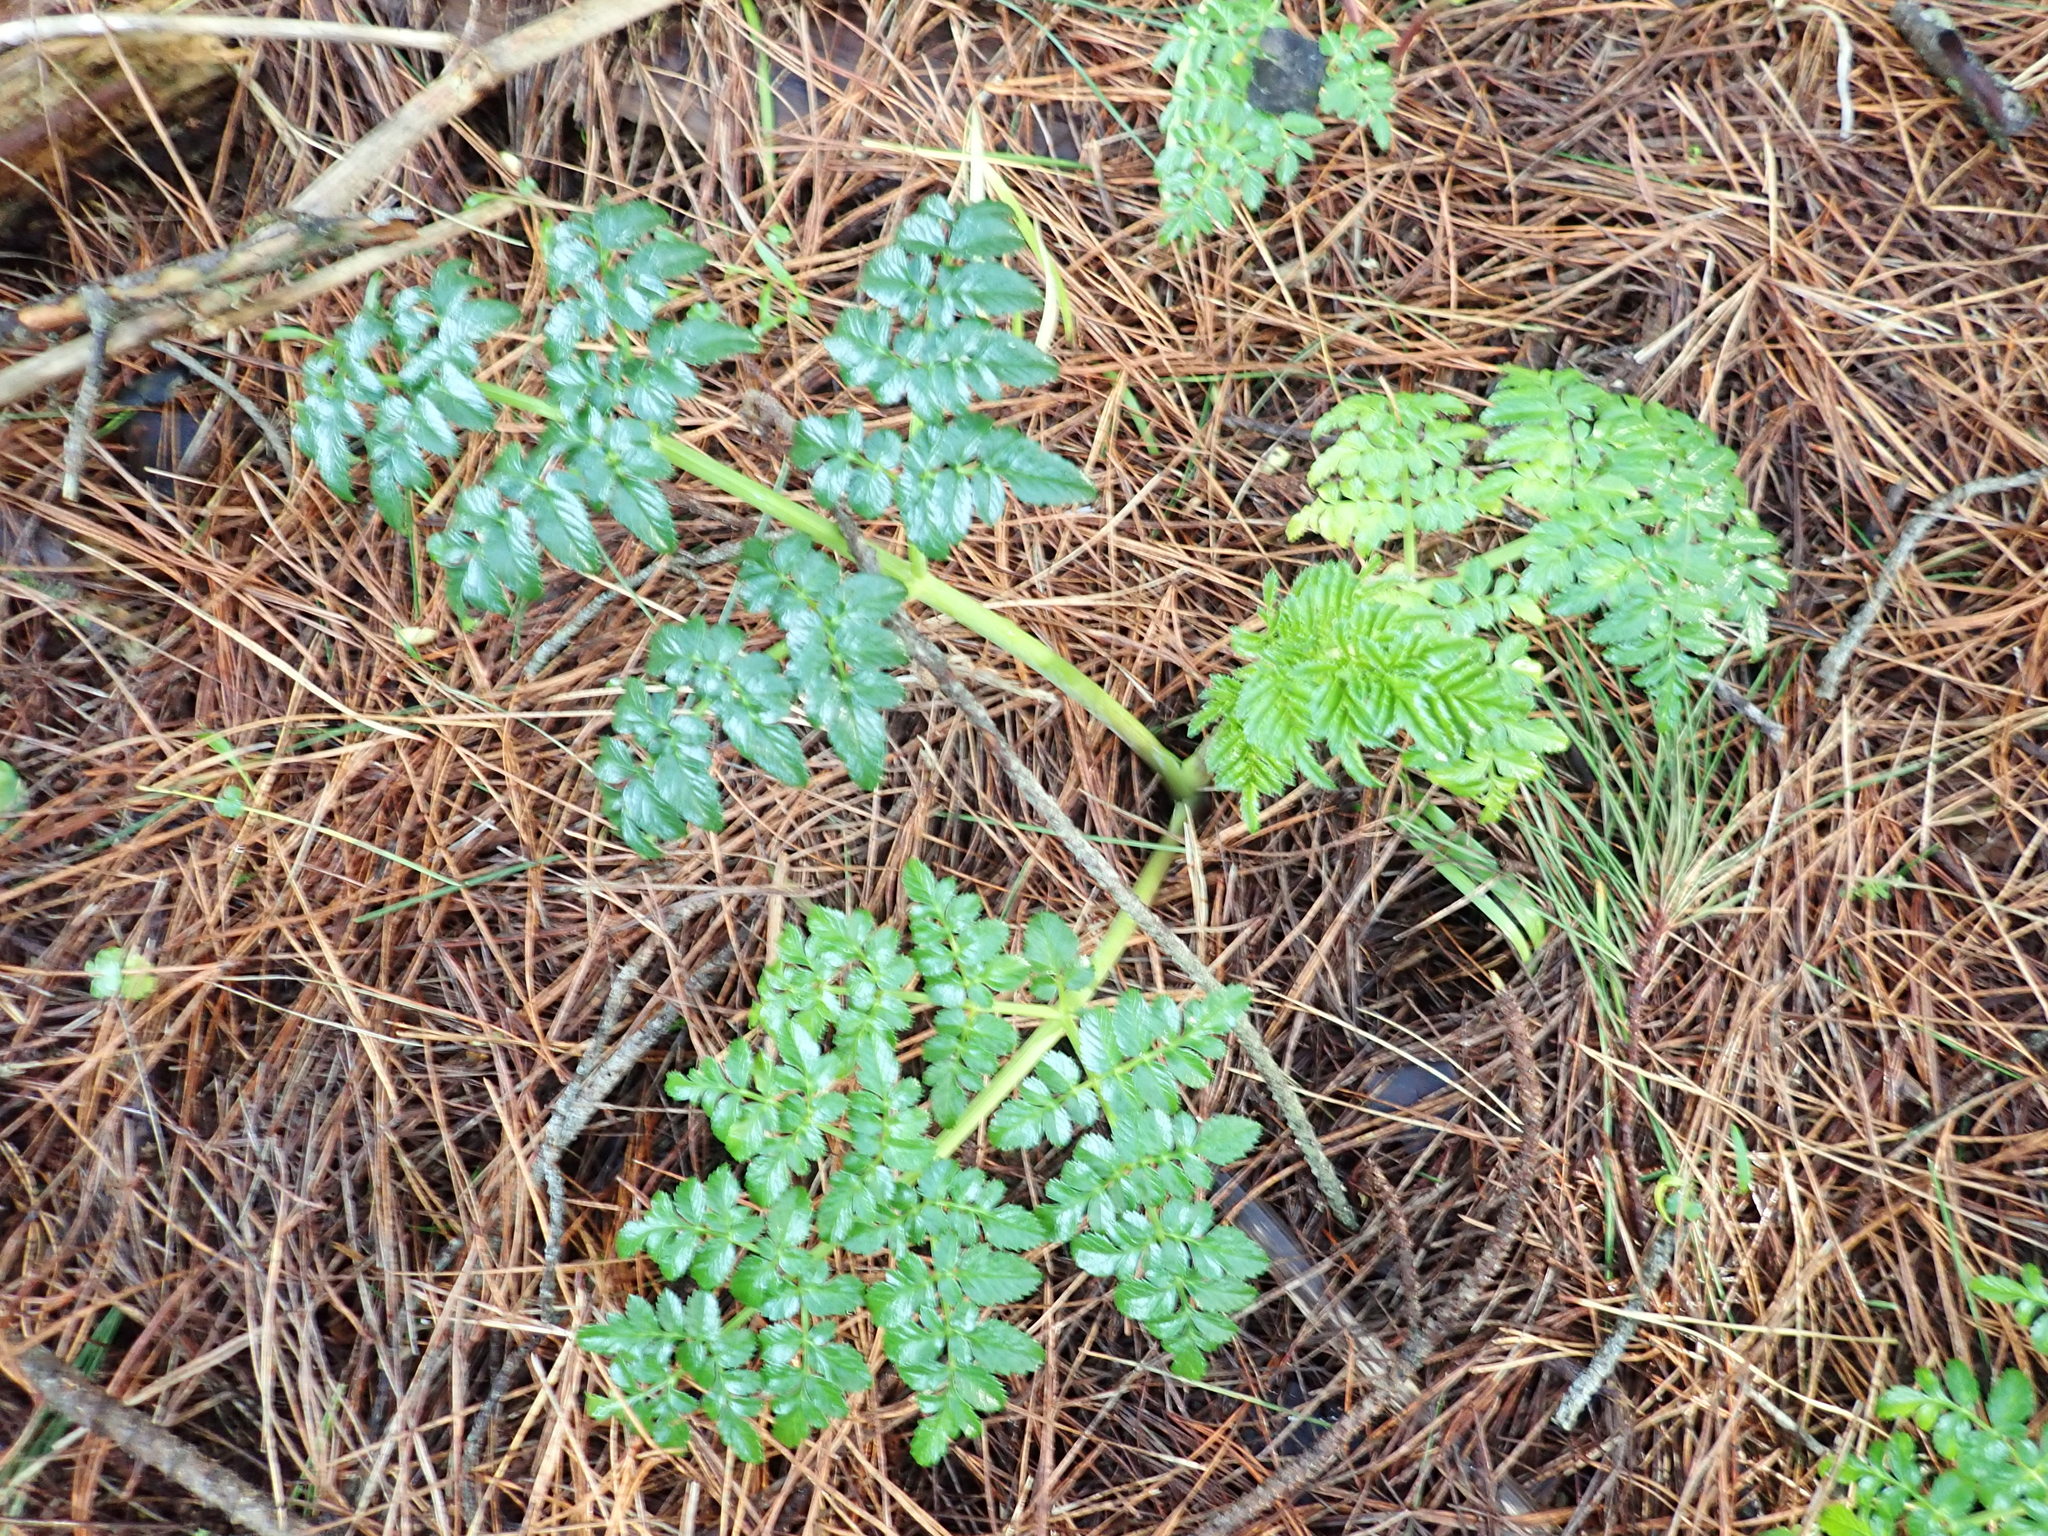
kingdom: Plantae
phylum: Tracheophyta
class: Magnoliopsida
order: Apiales
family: Apiaceae
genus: Angelica
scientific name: Angelica pachycarpa
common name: Portuguese angelica
